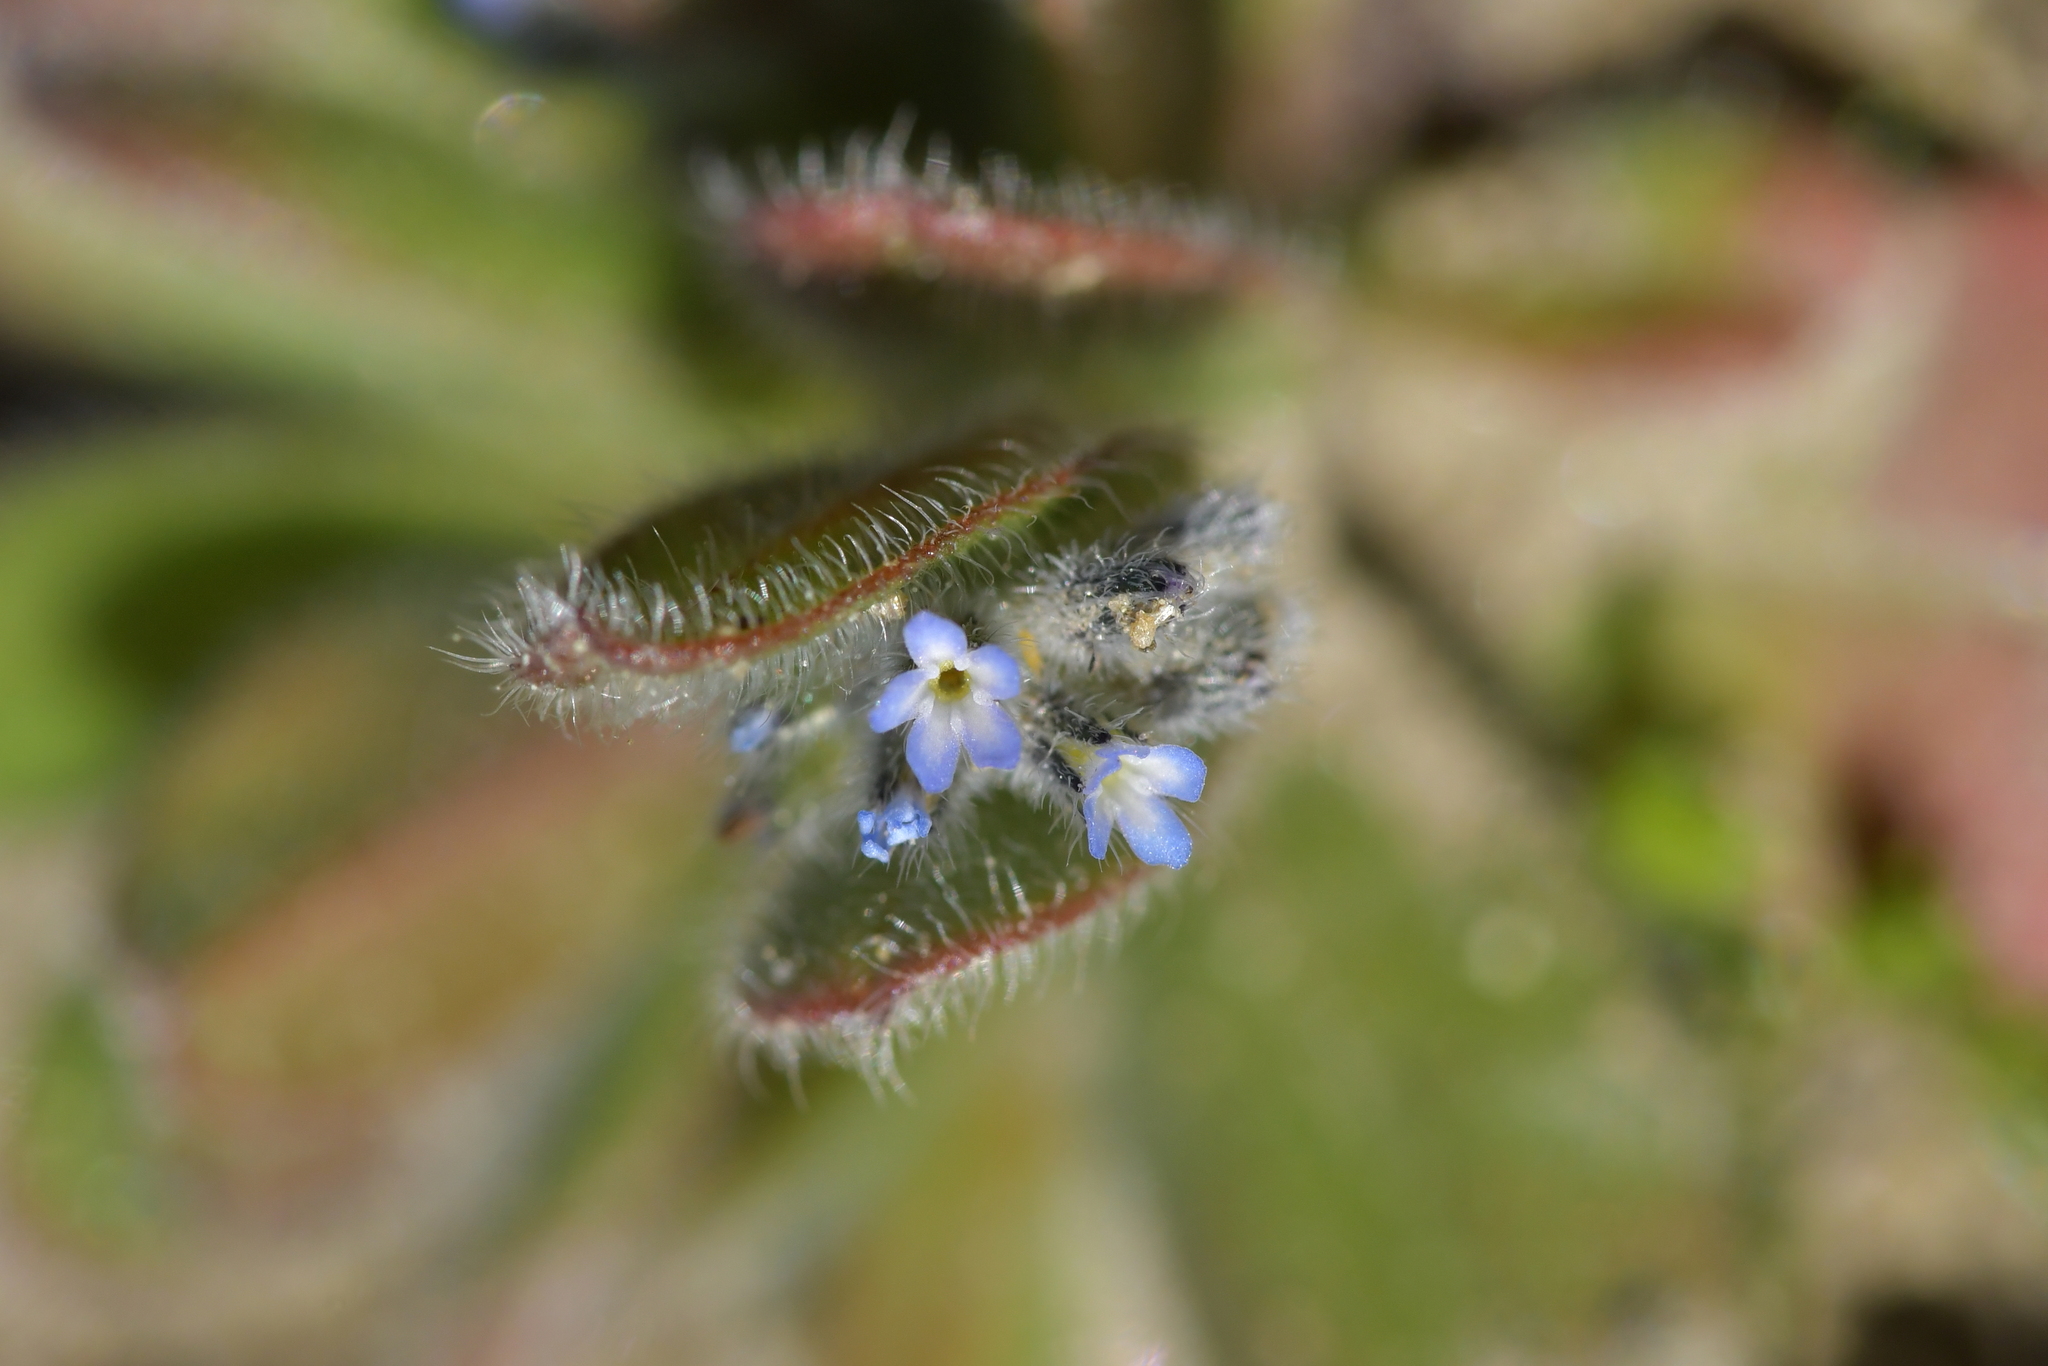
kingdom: Plantae
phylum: Tracheophyta
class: Magnoliopsida
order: Boraginales
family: Boraginaceae
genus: Myosotis
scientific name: Myosotis stricta
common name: Strict forget-me-not
